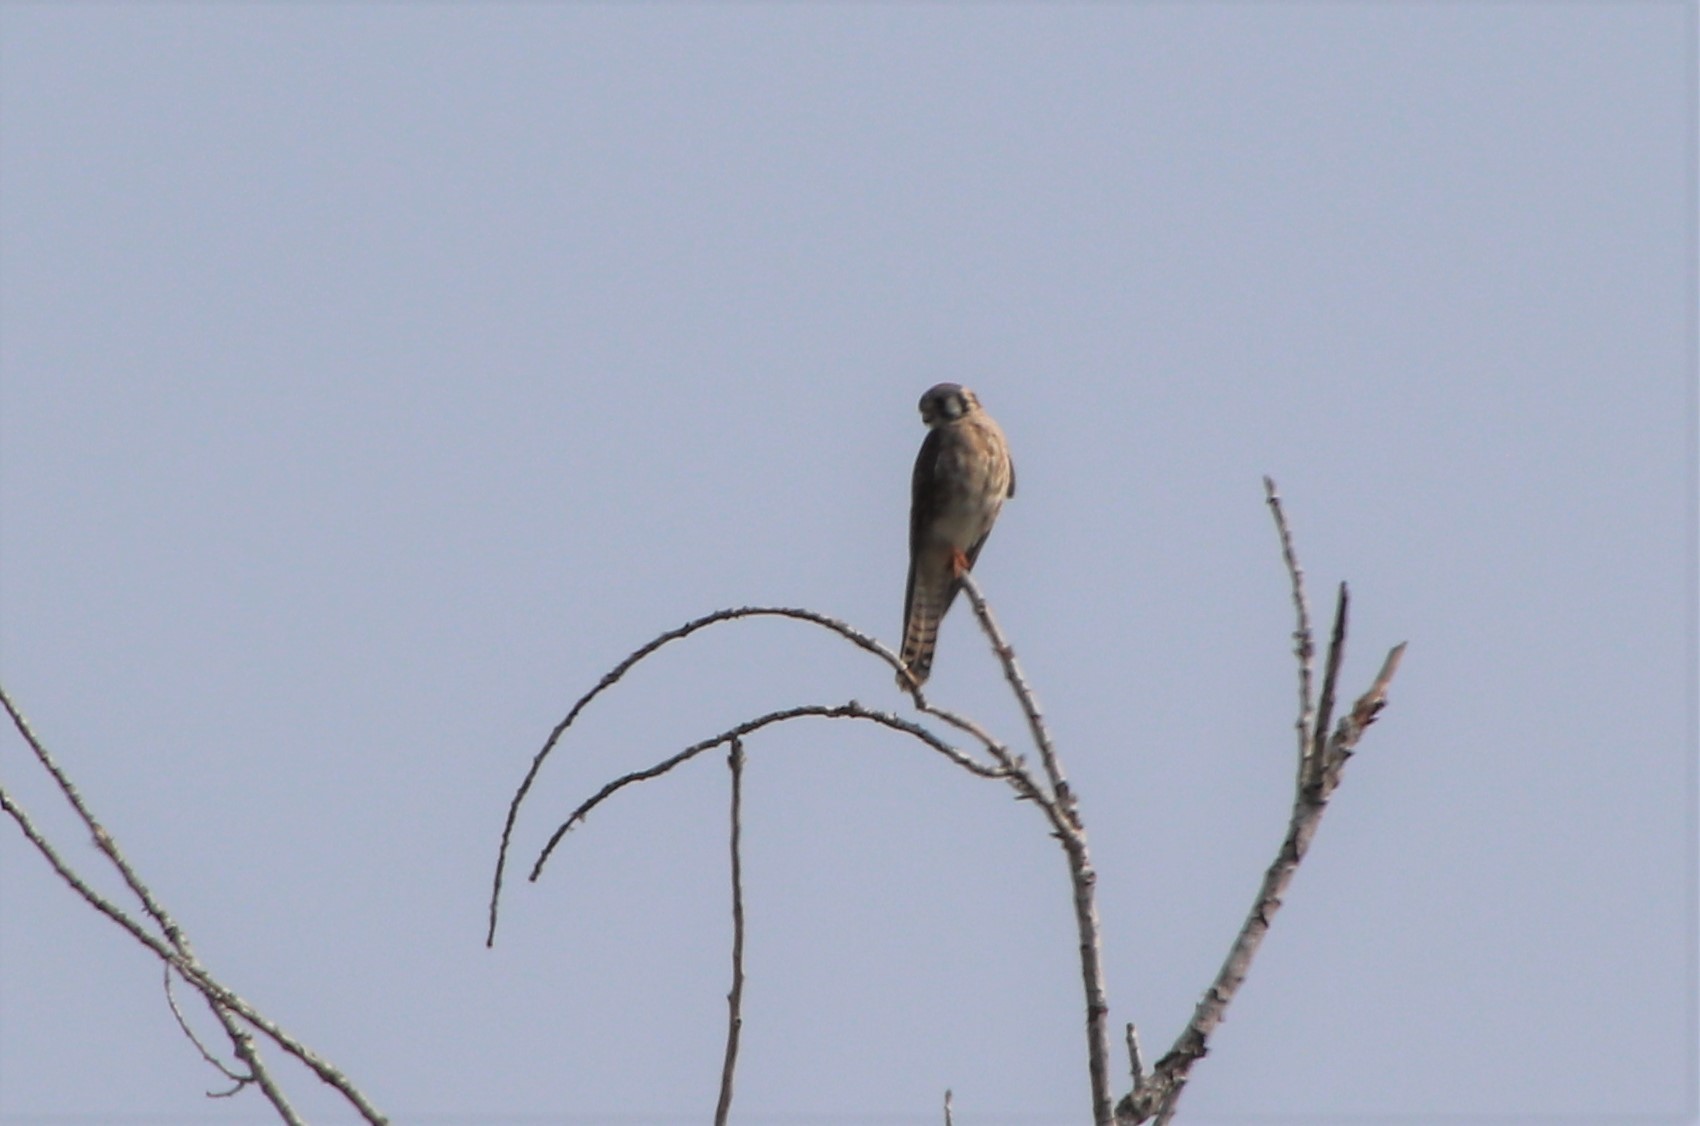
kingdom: Animalia
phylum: Chordata
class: Aves
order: Falconiformes
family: Falconidae
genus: Falco
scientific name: Falco sparverius
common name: American kestrel
